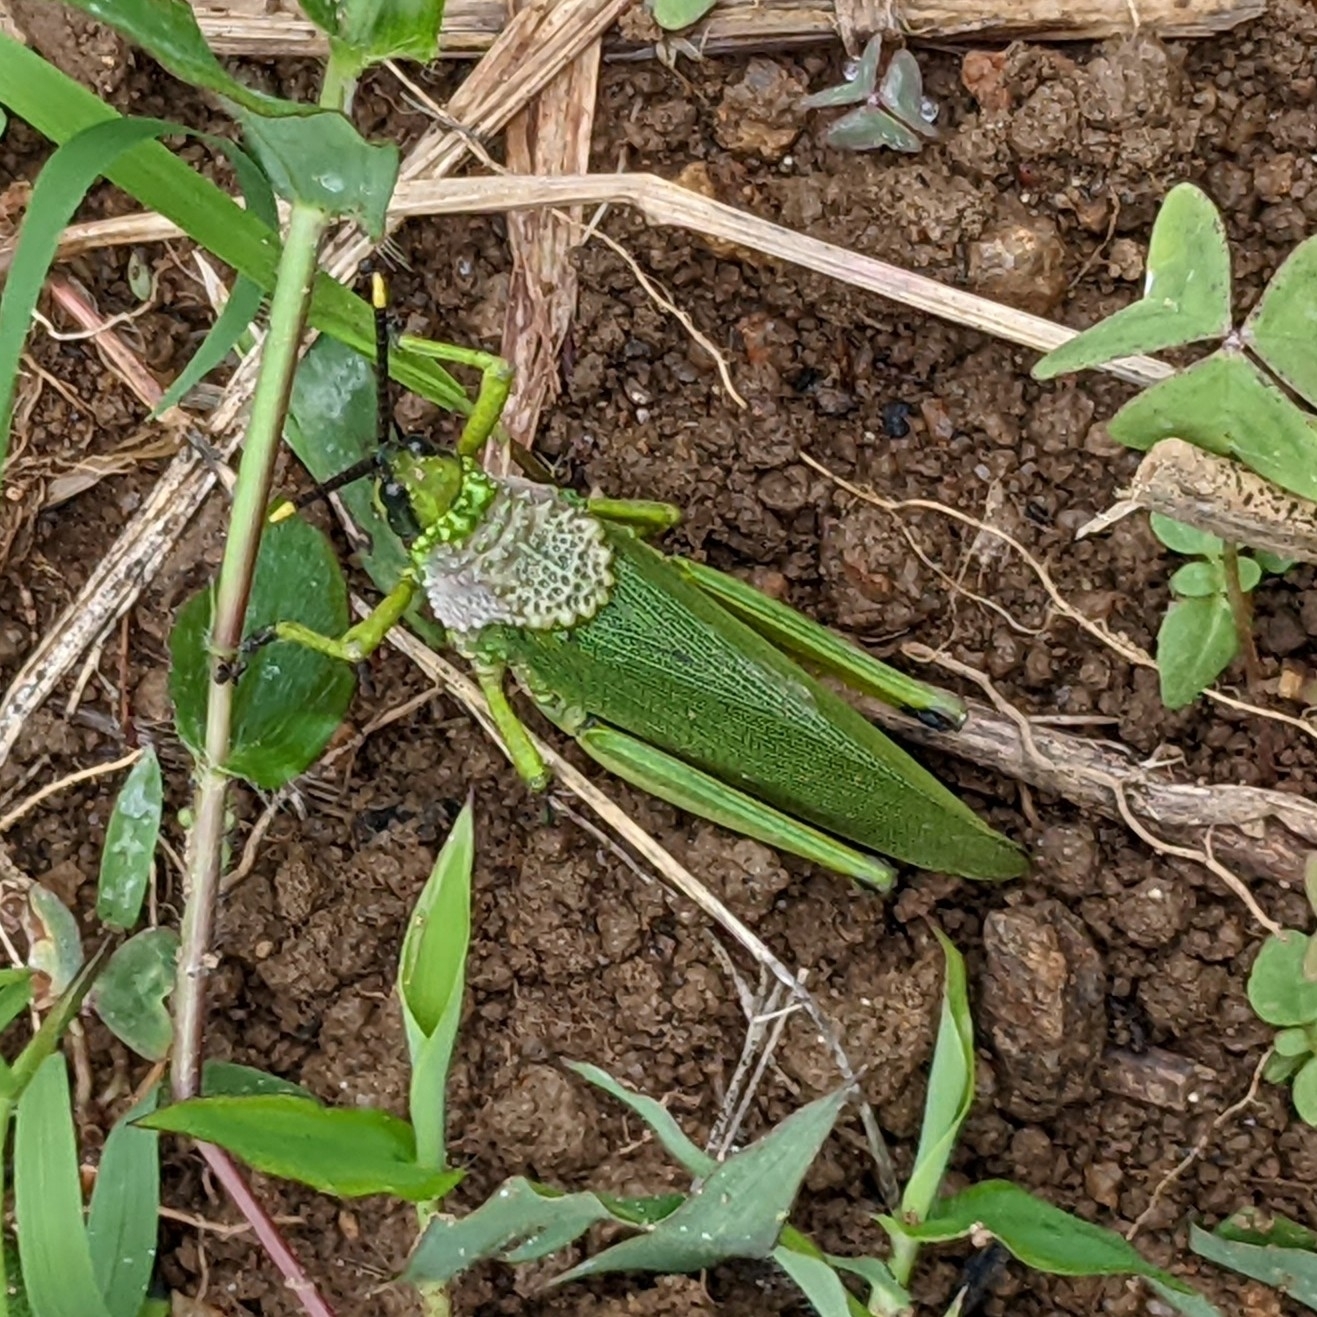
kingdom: Animalia
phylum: Arthropoda
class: Insecta
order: Orthoptera
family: Pyrgomorphidae
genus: Taphronota
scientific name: Taphronota calliparea
